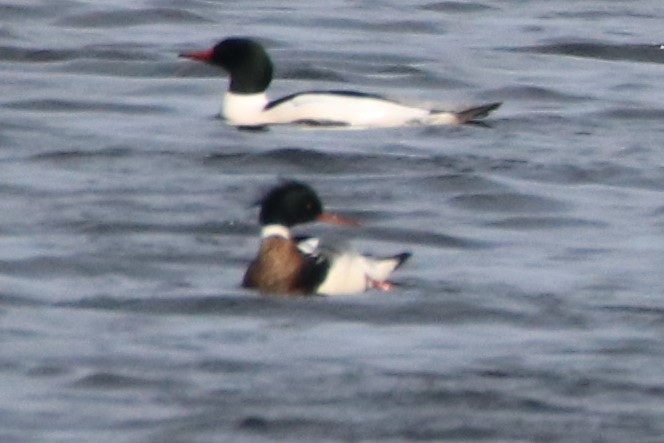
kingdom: Animalia
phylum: Chordata
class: Aves
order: Anseriformes
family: Anatidae
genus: Mergus
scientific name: Mergus serrator
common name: Red-breasted merganser
